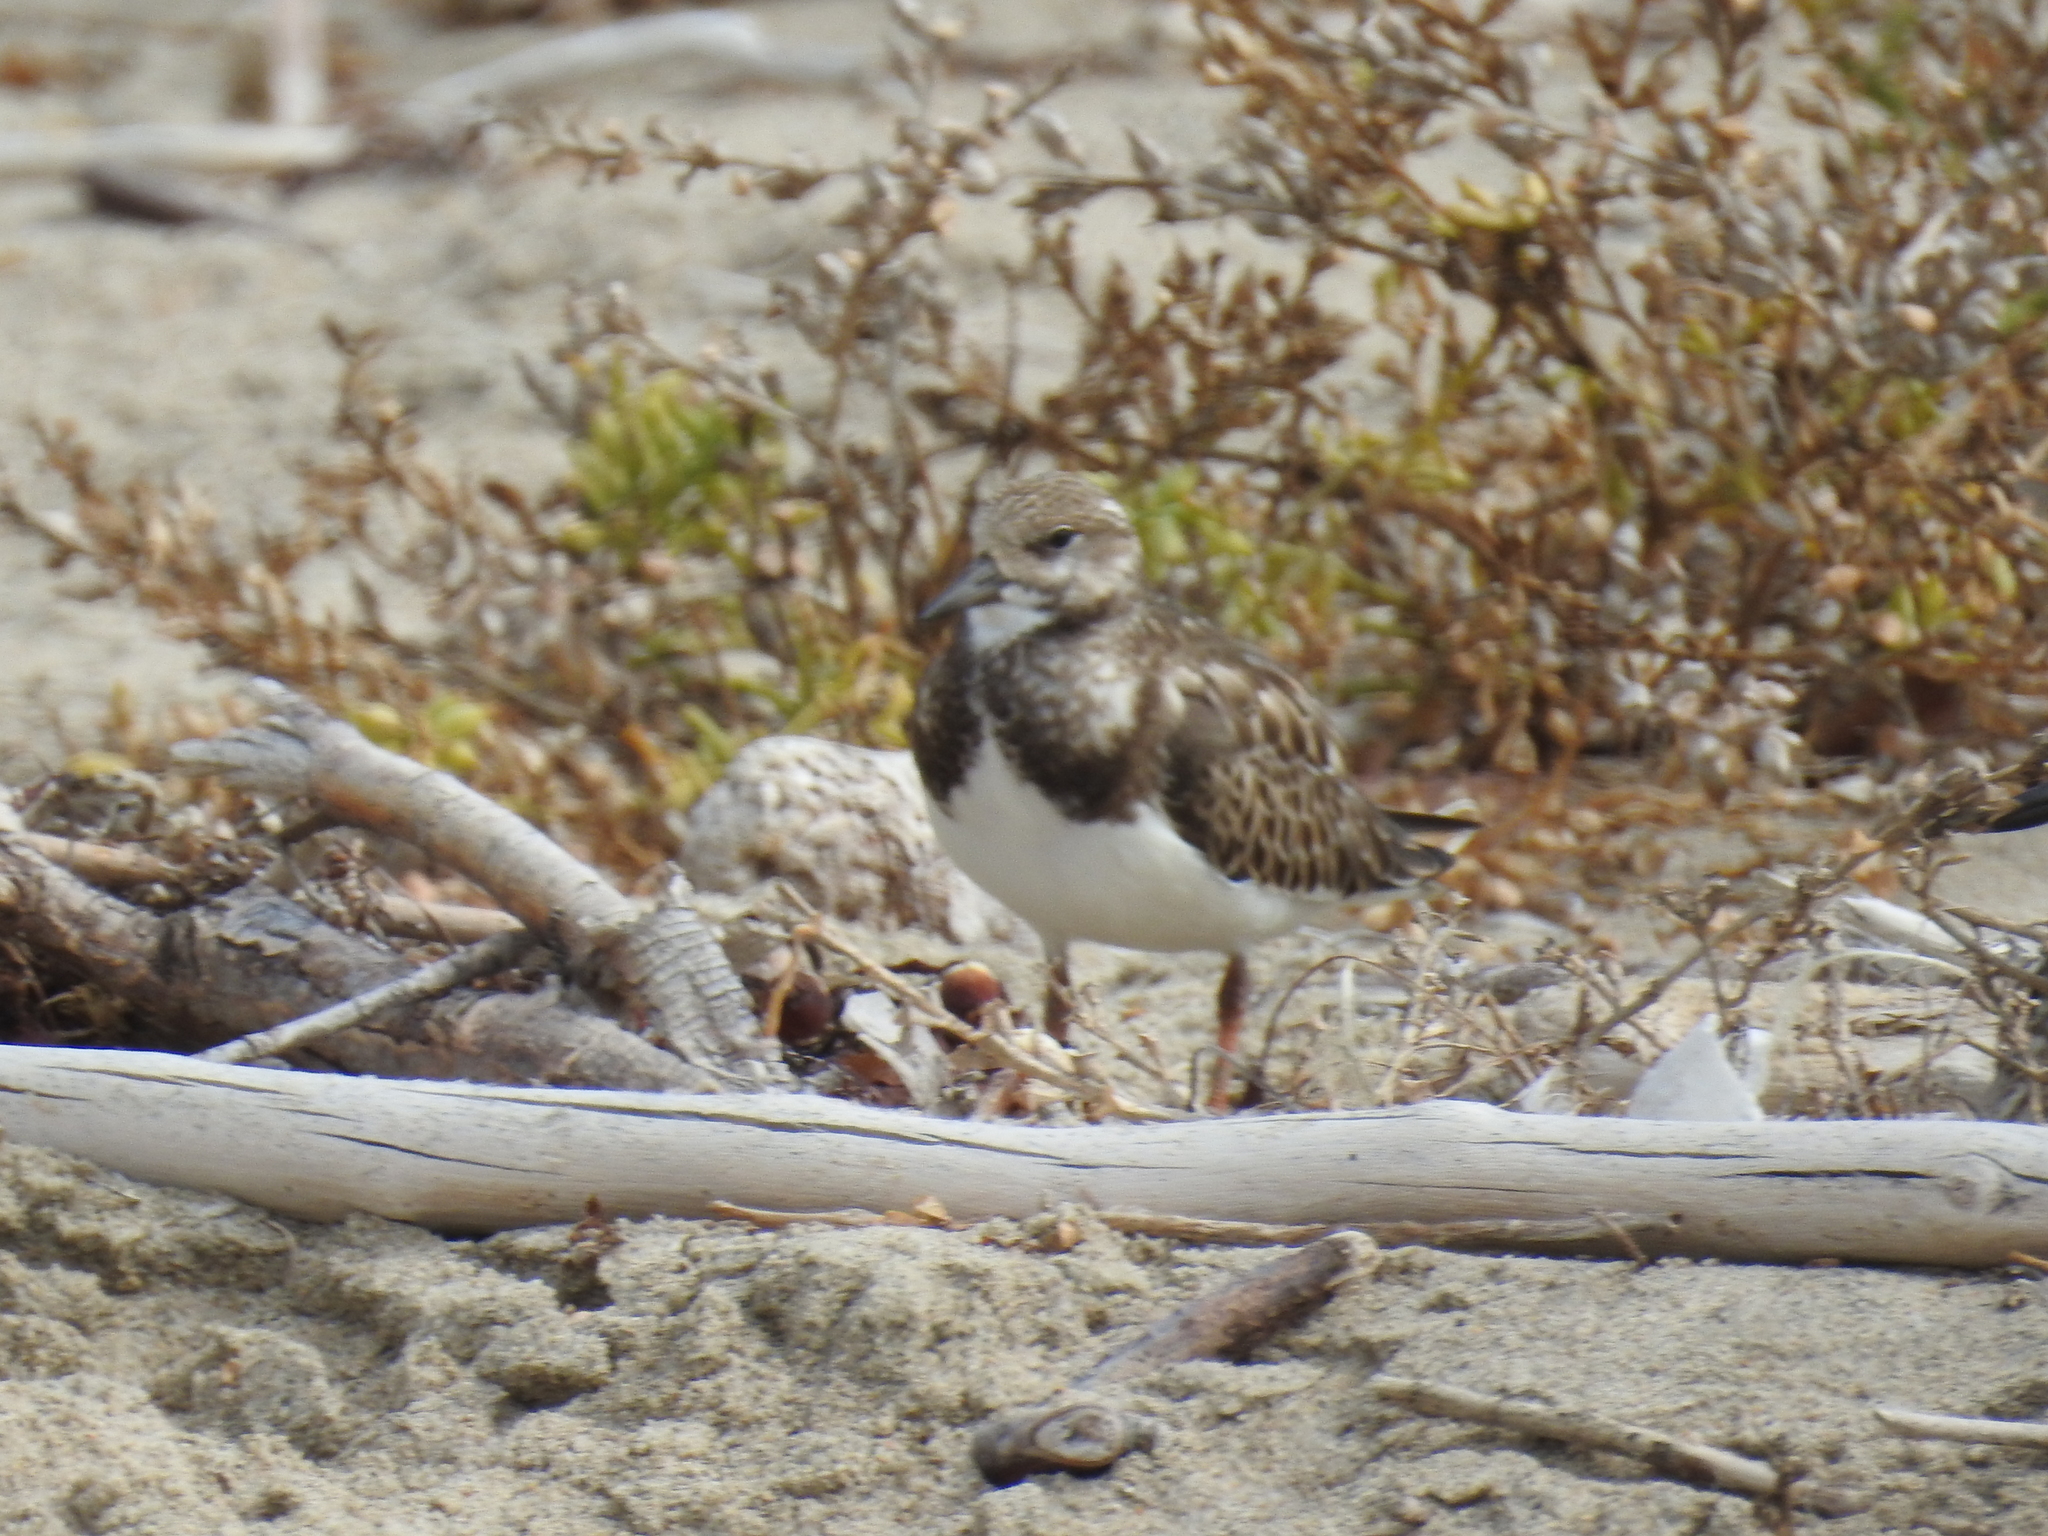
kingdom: Animalia
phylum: Chordata
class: Aves
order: Charadriiformes
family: Scolopacidae
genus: Arenaria
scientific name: Arenaria interpres
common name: Ruddy turnstone
